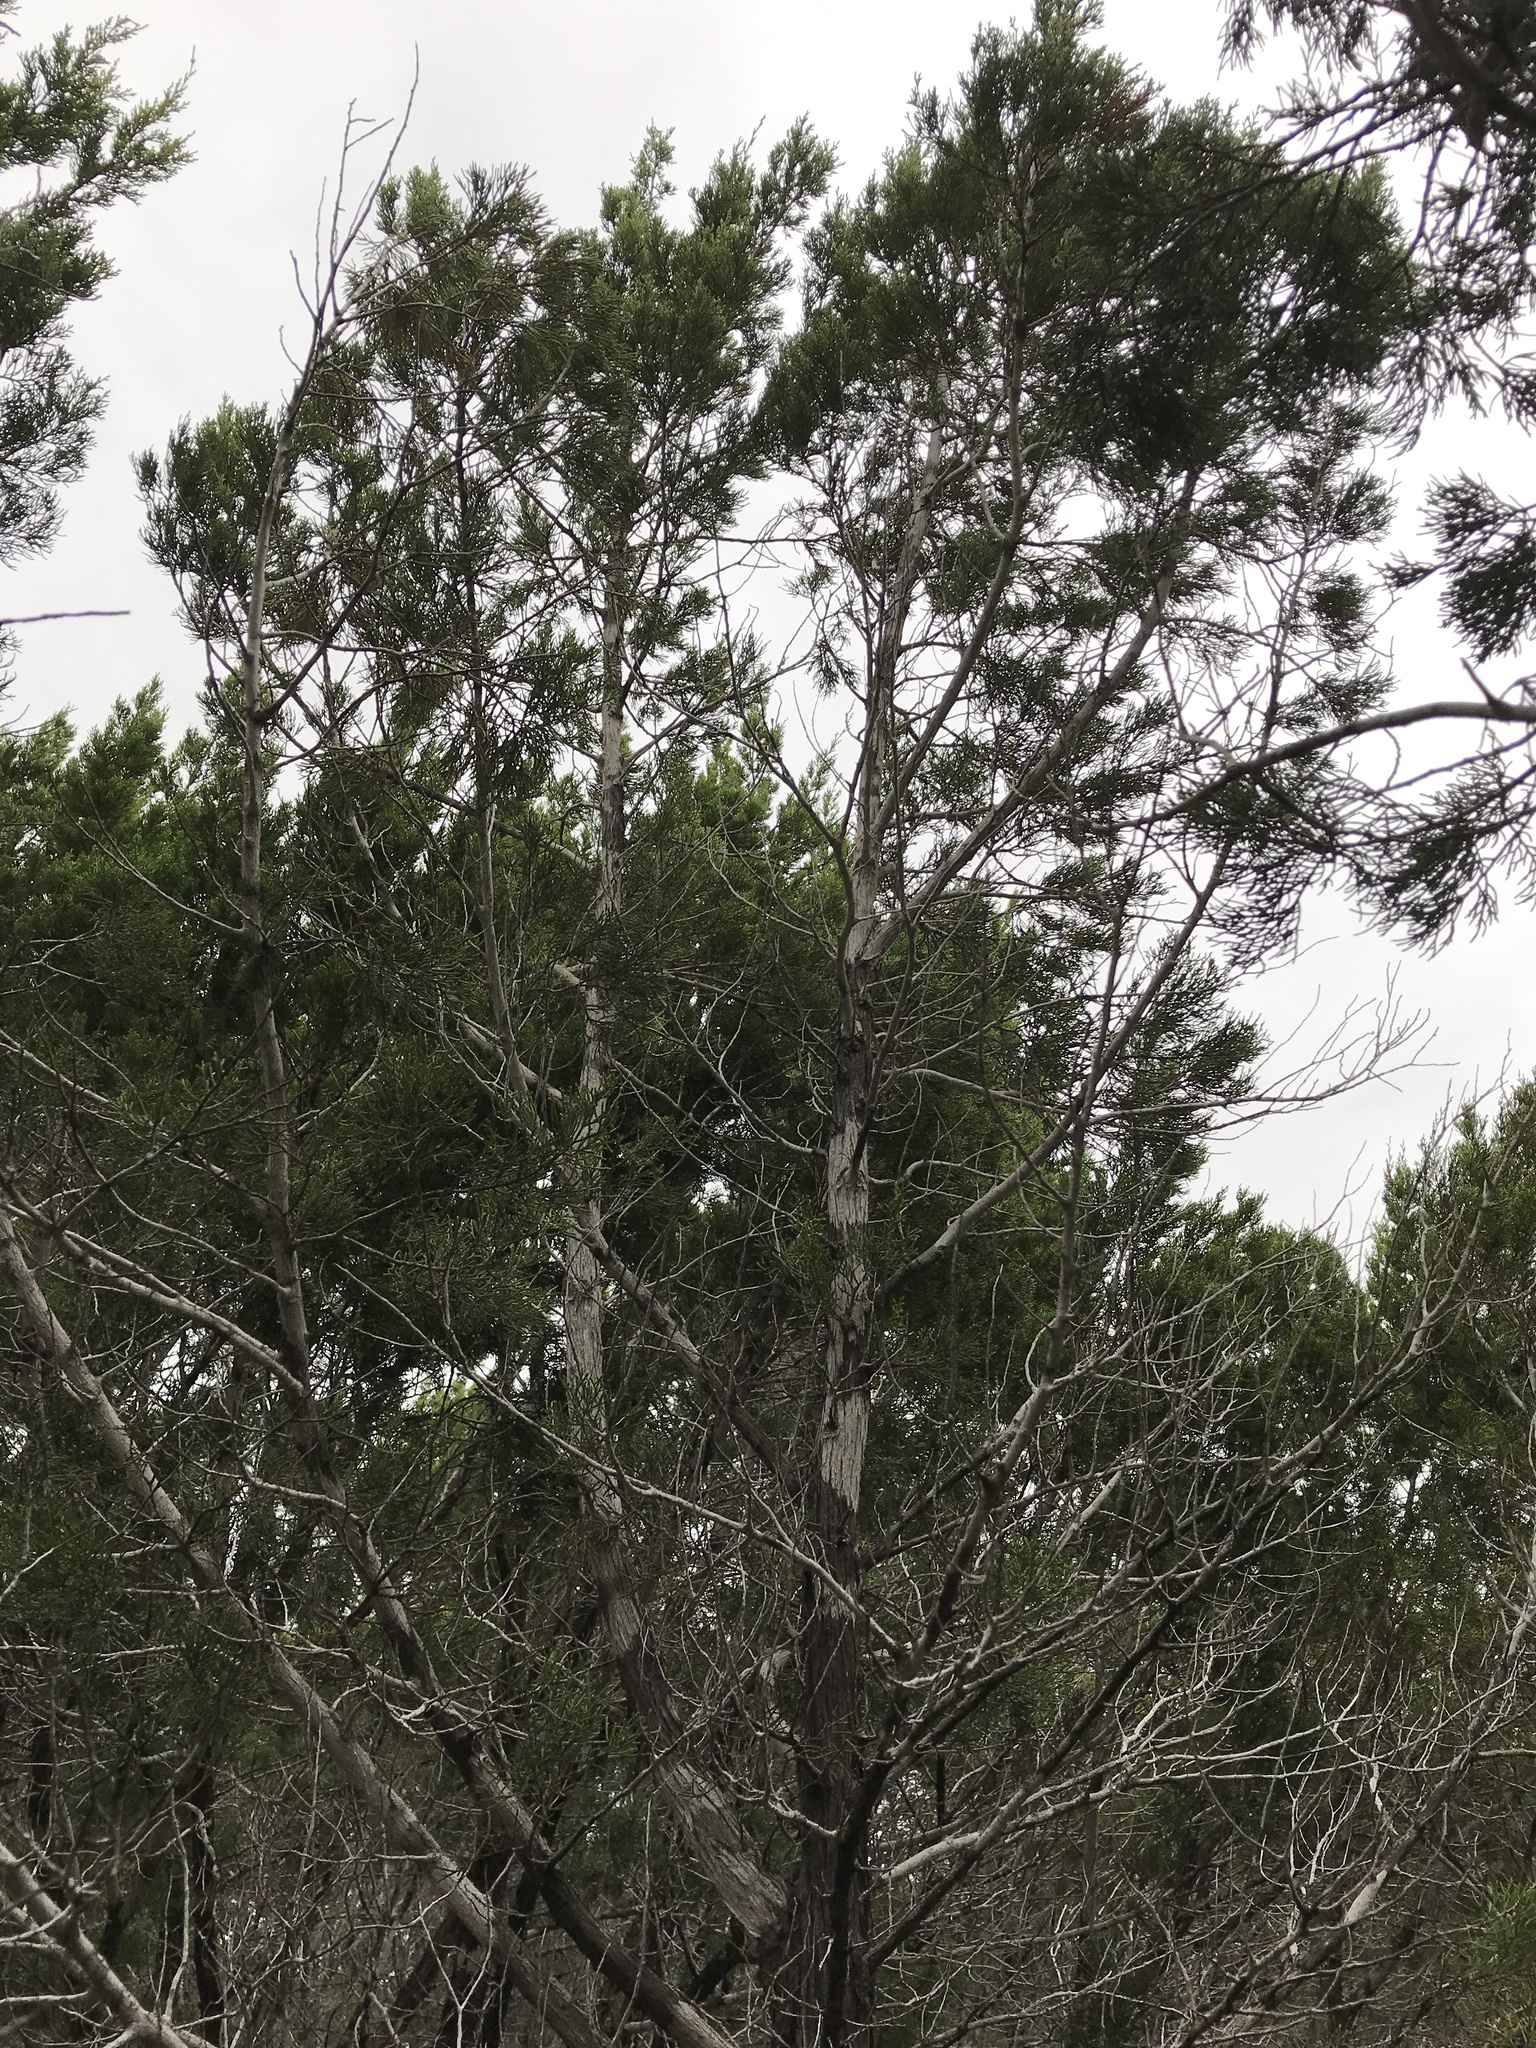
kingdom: Plantae
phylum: Tracheophyta
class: Pinopsida
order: Pinales
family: Cupressaceae
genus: Juniperus
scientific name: Juniperus ashei
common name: Mexican juniper
